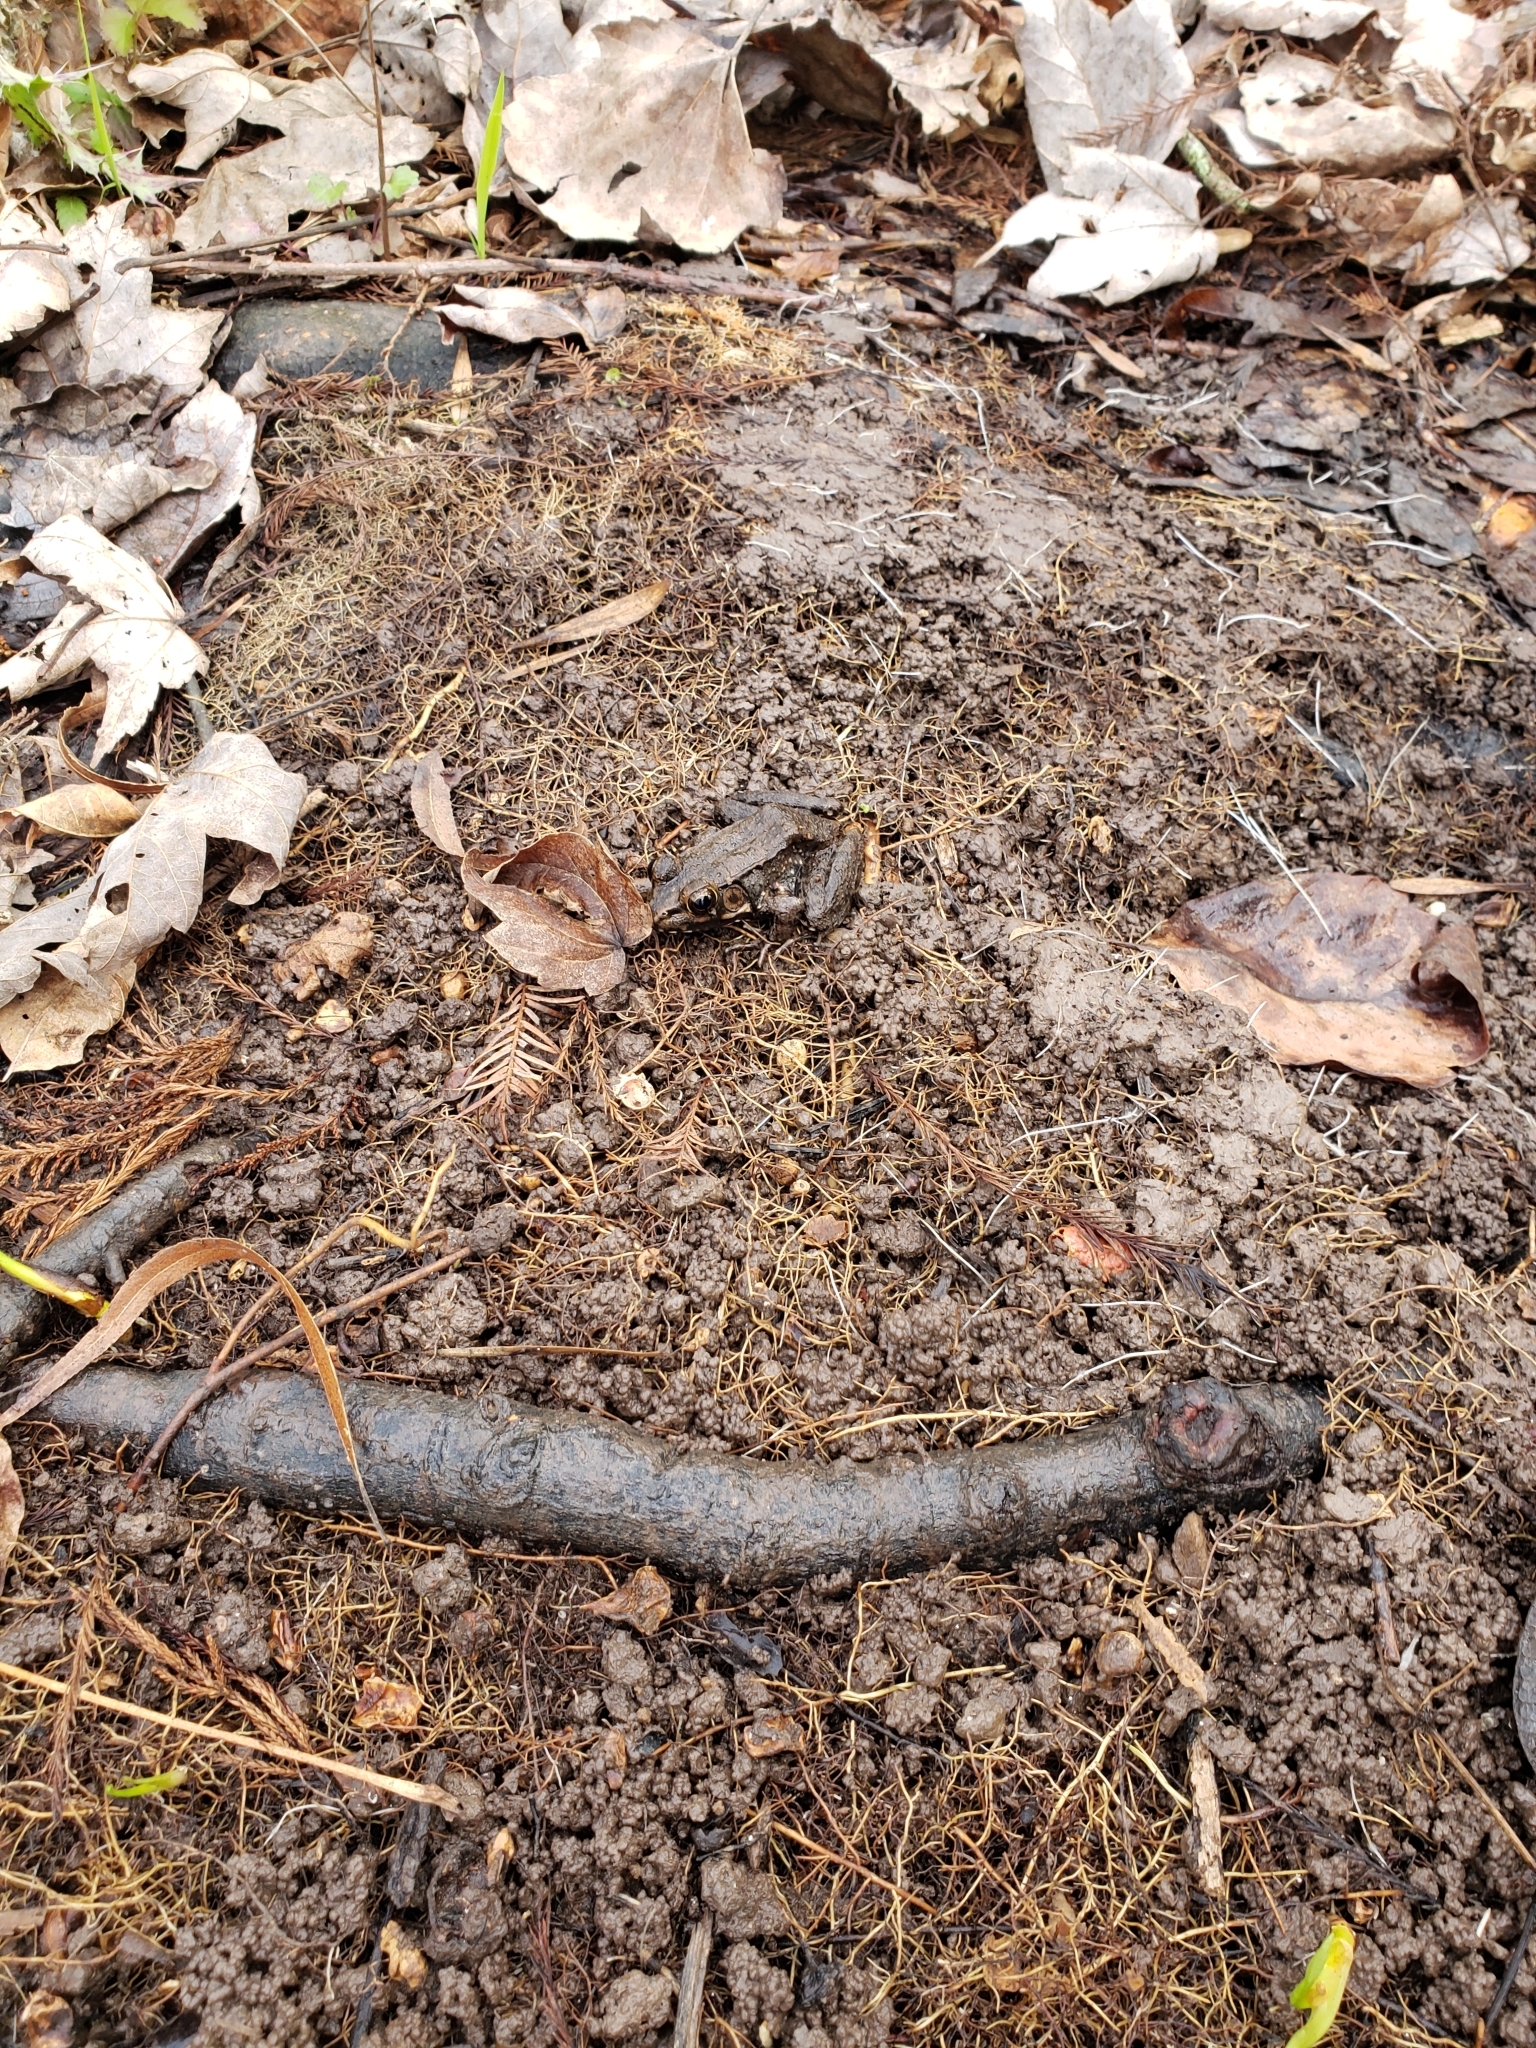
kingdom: Animalia
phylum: Chordata
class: Amphibia
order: Anura
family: Ranidae
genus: Lithobates
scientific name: Lithobates clamitans
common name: Green frog
